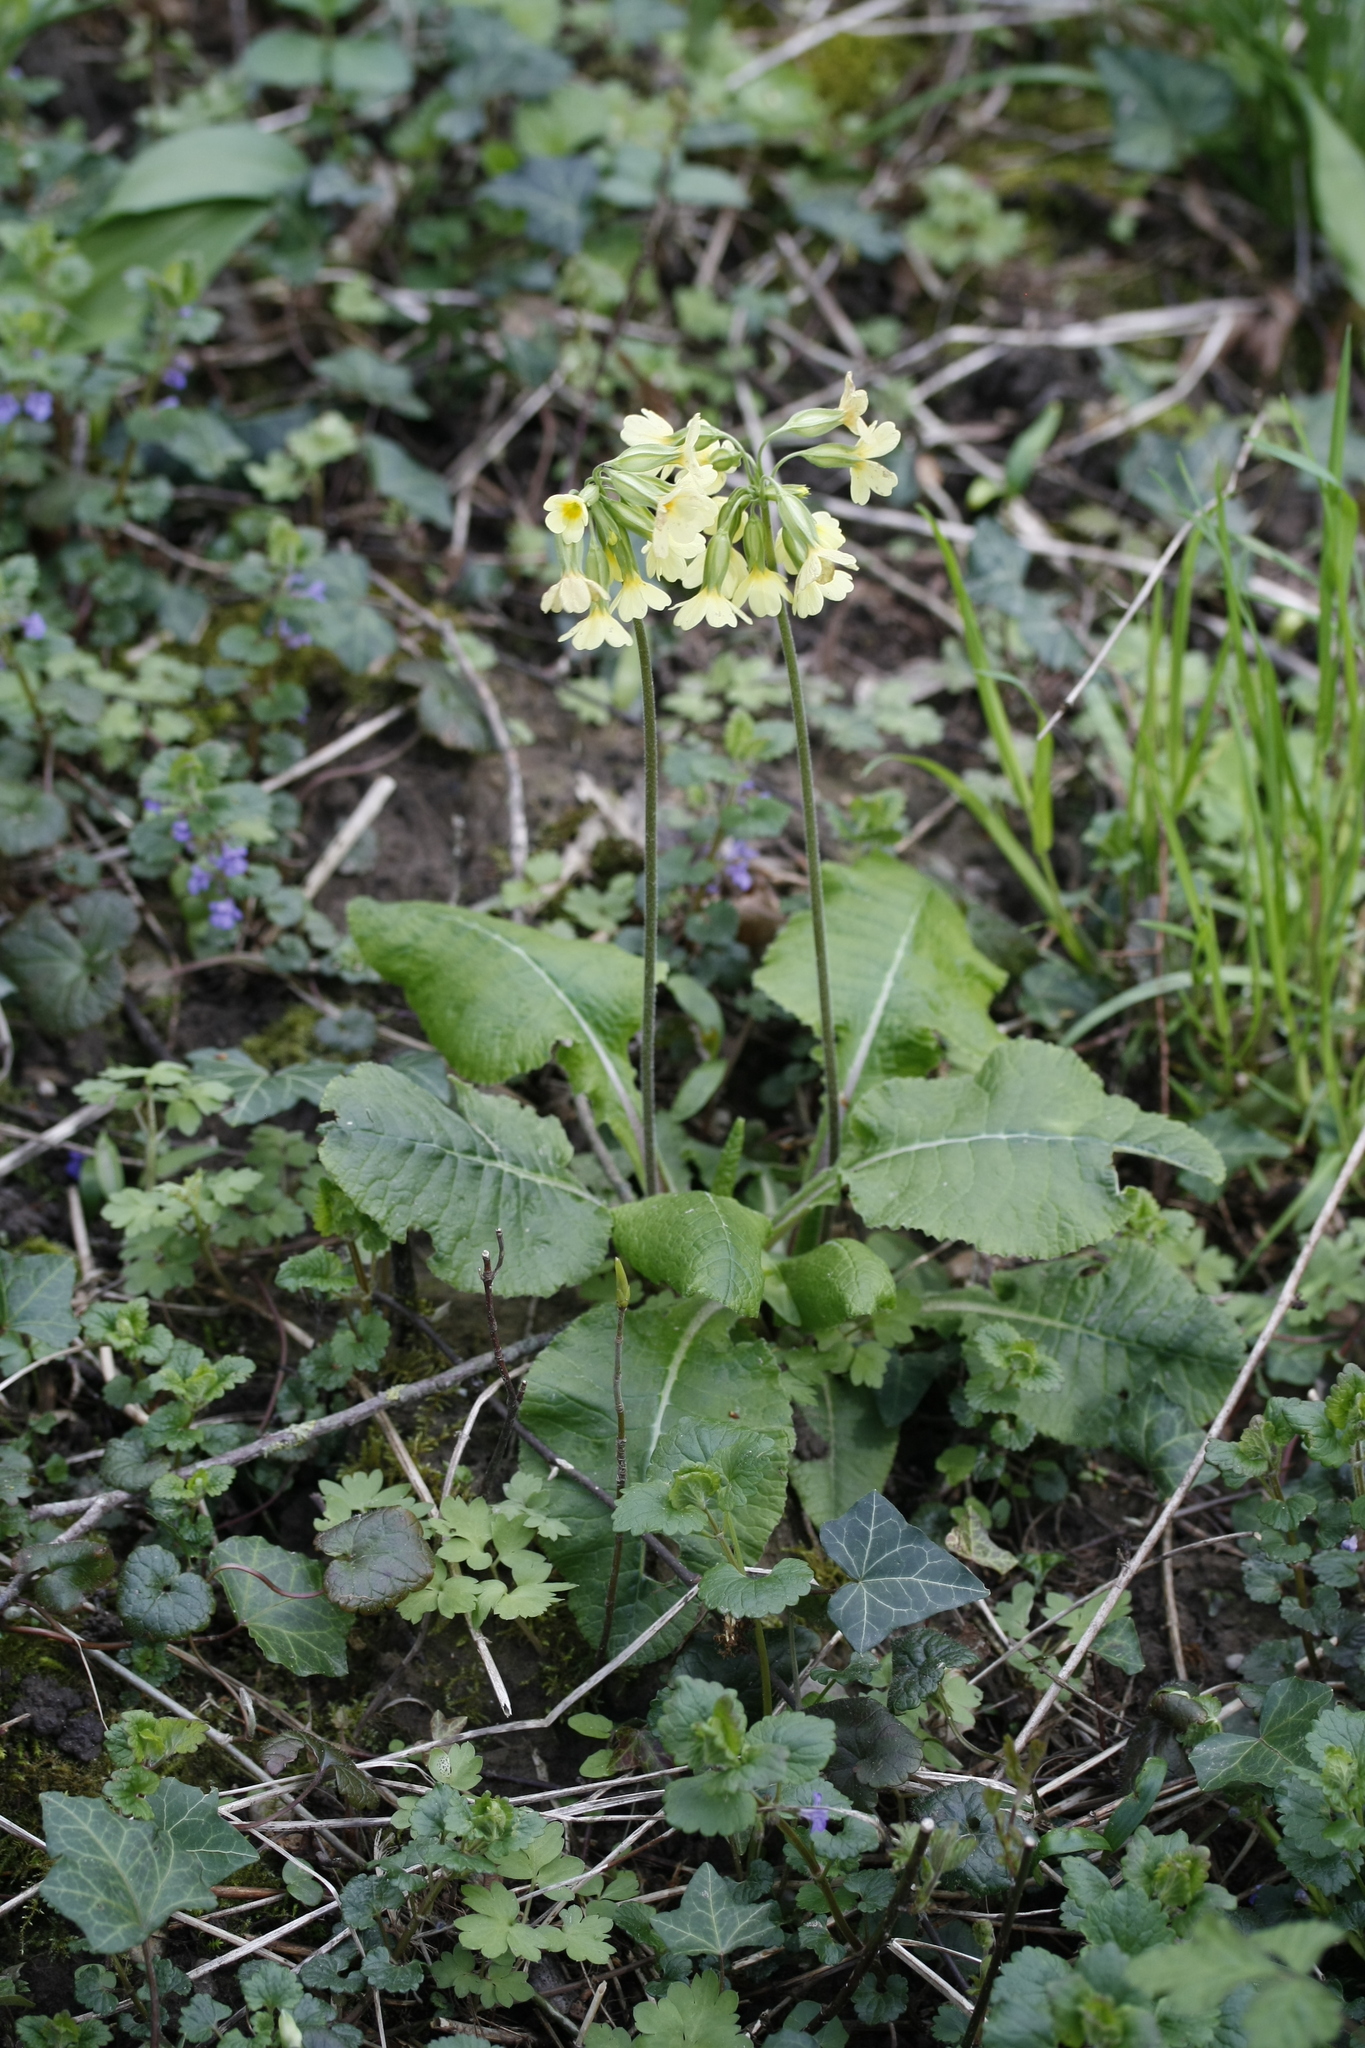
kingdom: Plantae
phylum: Tracheophyta
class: Magnoliopsida
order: Ericales
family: Primulaceae
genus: Primula
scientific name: Primula elatior
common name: Oxlip
